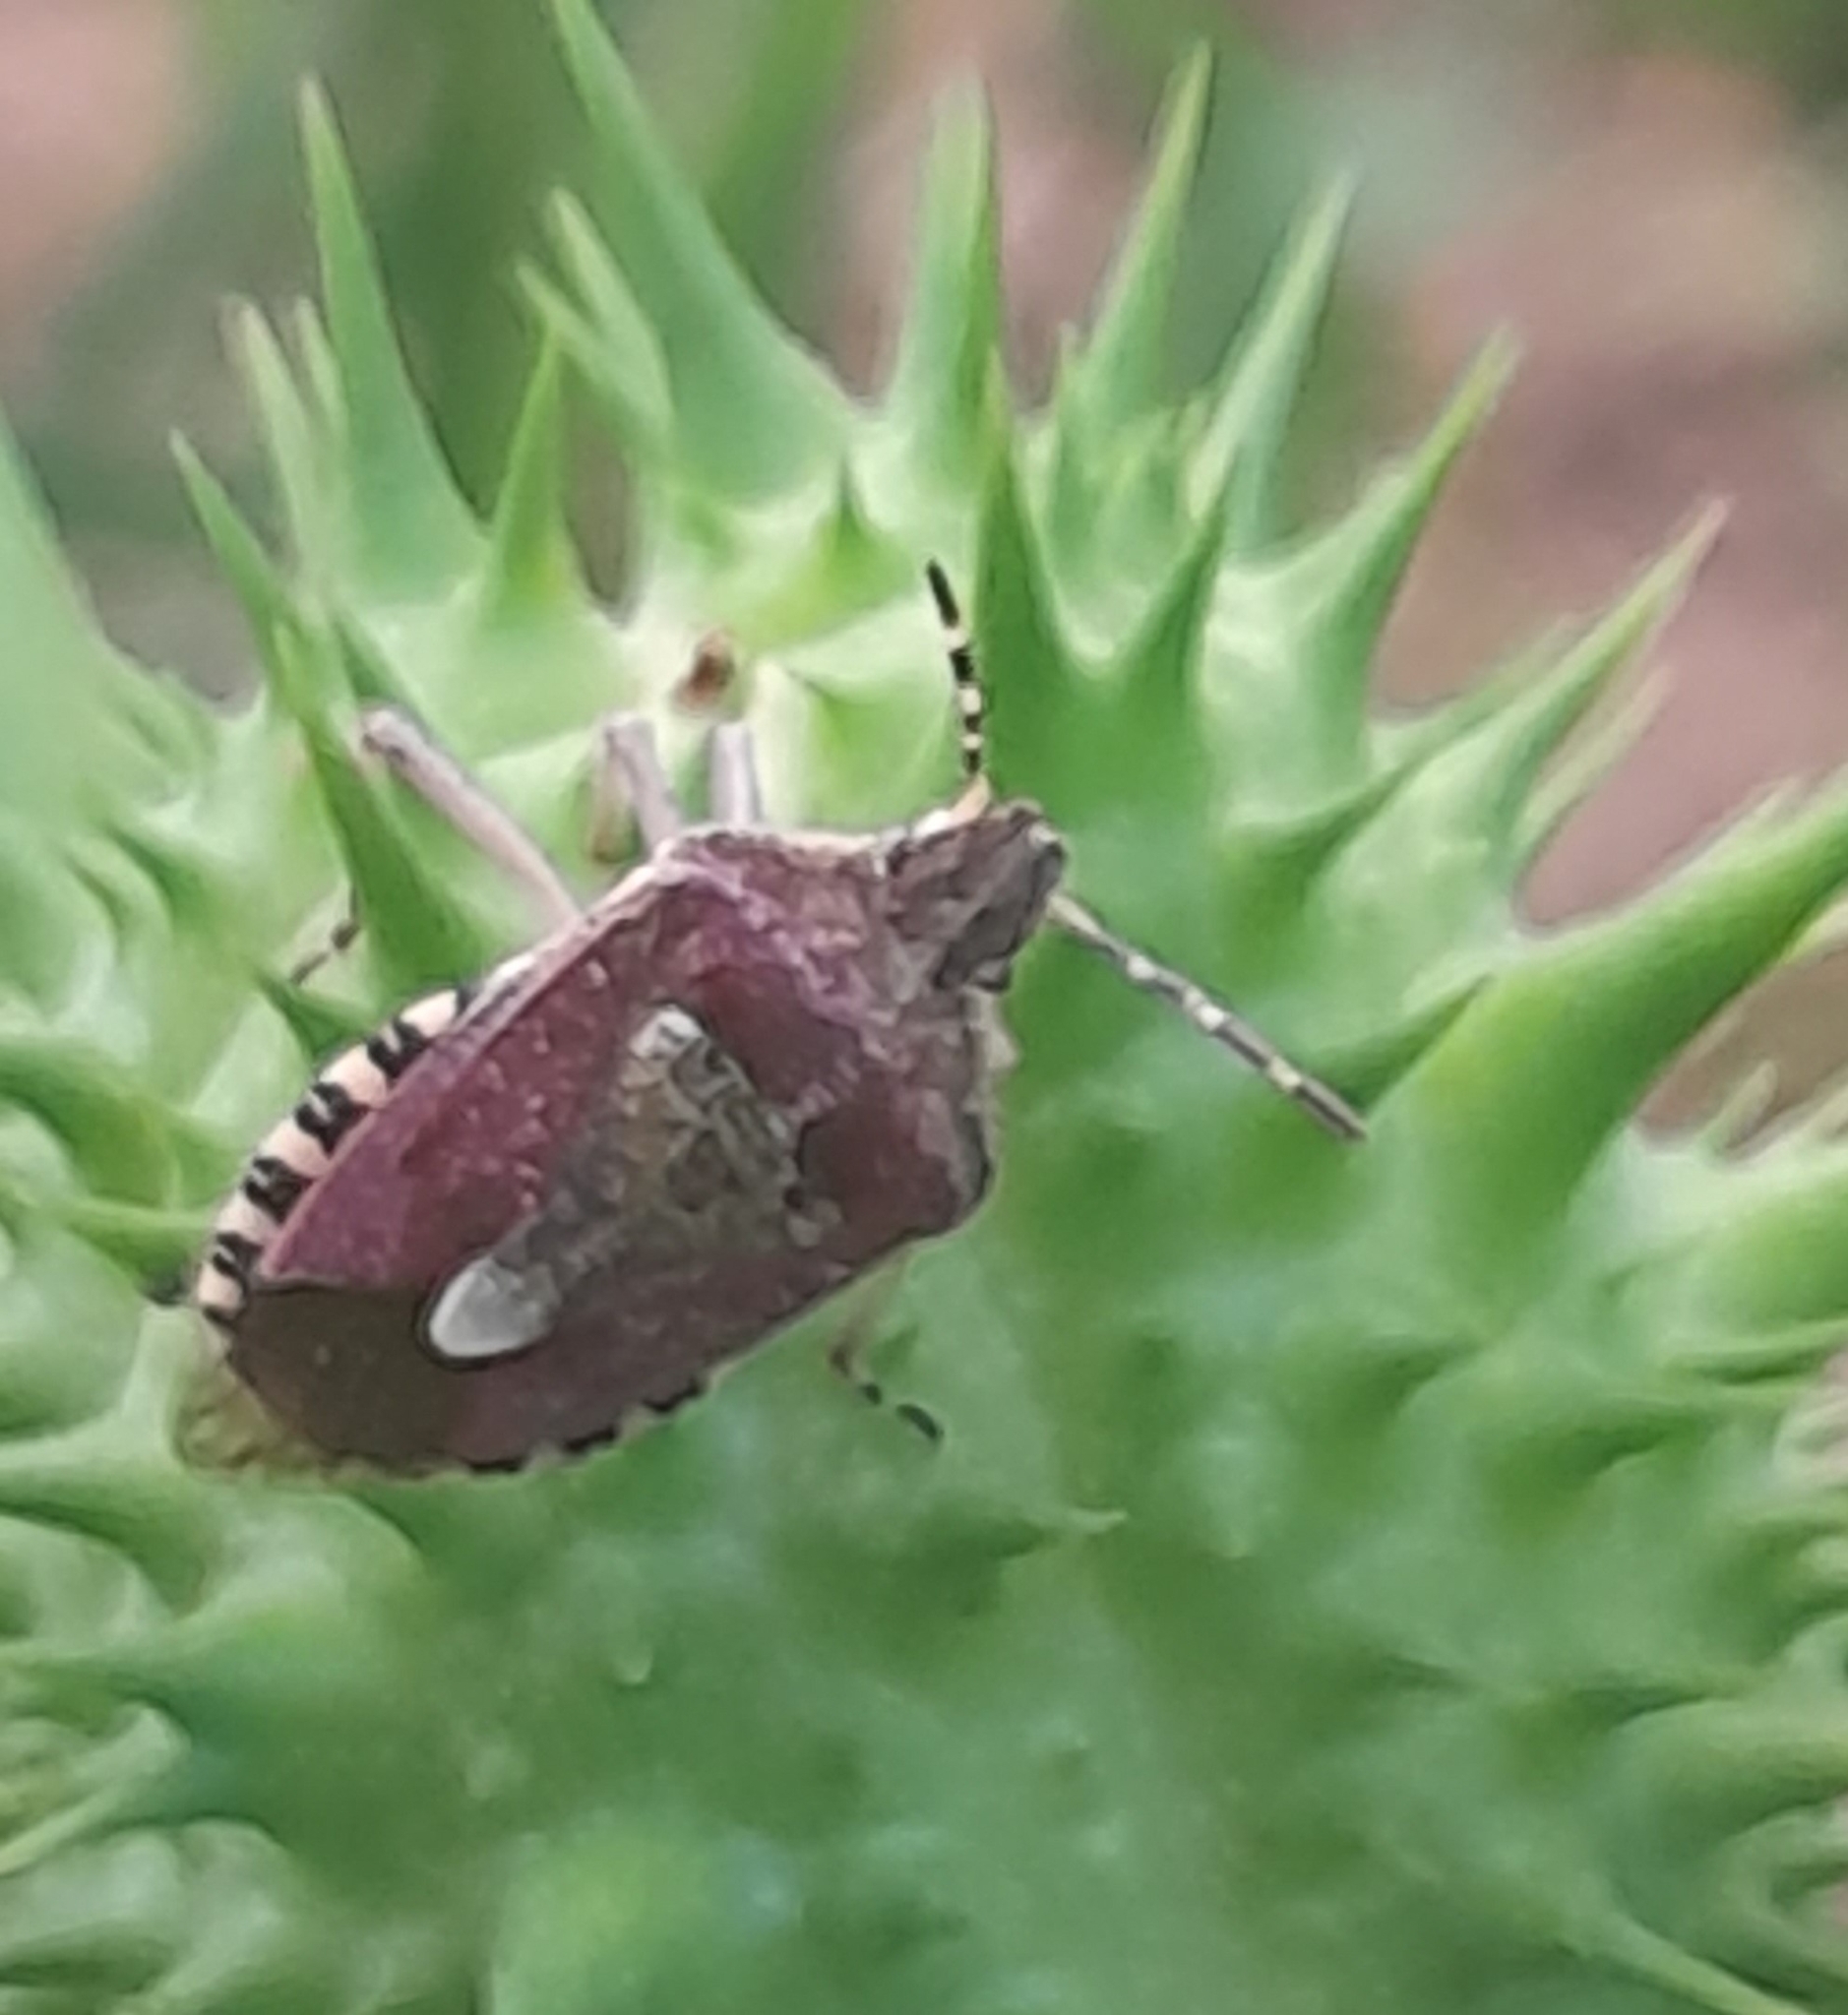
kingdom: Animalia
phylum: Arthropoda
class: Insecta
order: Hemiptera
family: Pentatomidae
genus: Dolycoris
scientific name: Dolycoris baccarum
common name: Sloe bug
